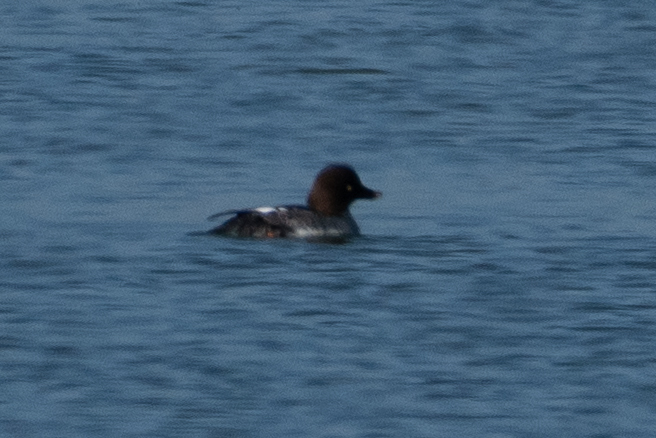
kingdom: Animalia
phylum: Chordata
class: Aves
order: Anseriformes
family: Anatidae
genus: Bucephala
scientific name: Bucephala clangula
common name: Common goldeneye
